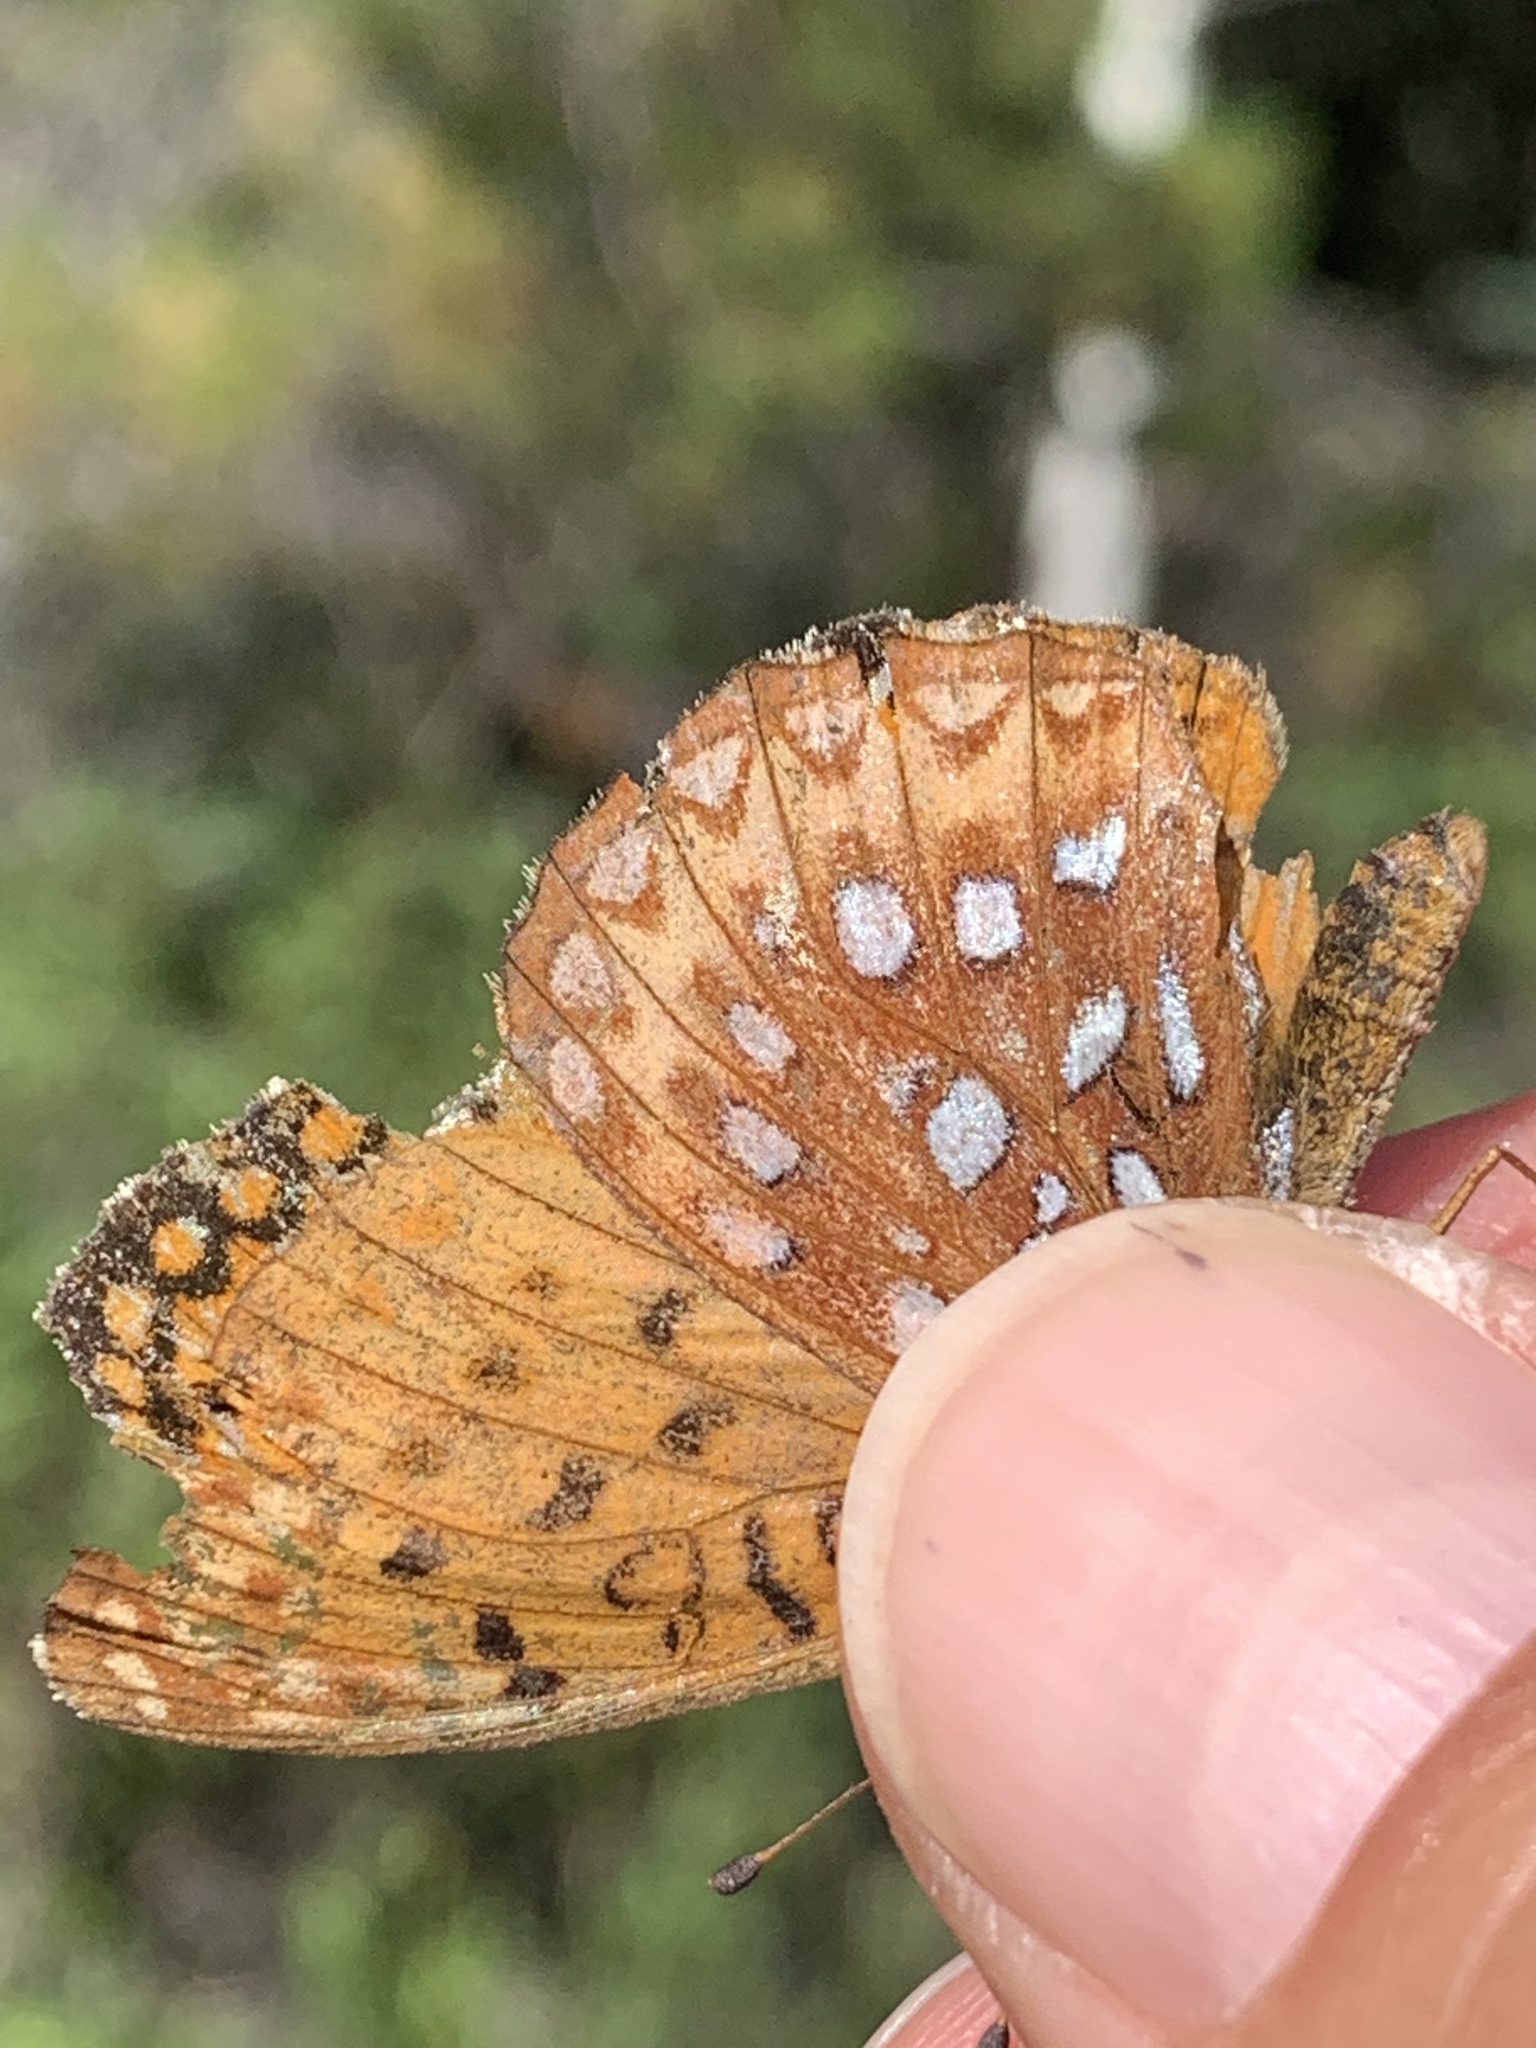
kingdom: Animalia
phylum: Arthropoda
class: Insecta
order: Lepidoptera
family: Nymphalidae
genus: Speyeria
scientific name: Speyeria atlantis
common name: Atlantis fritillary
